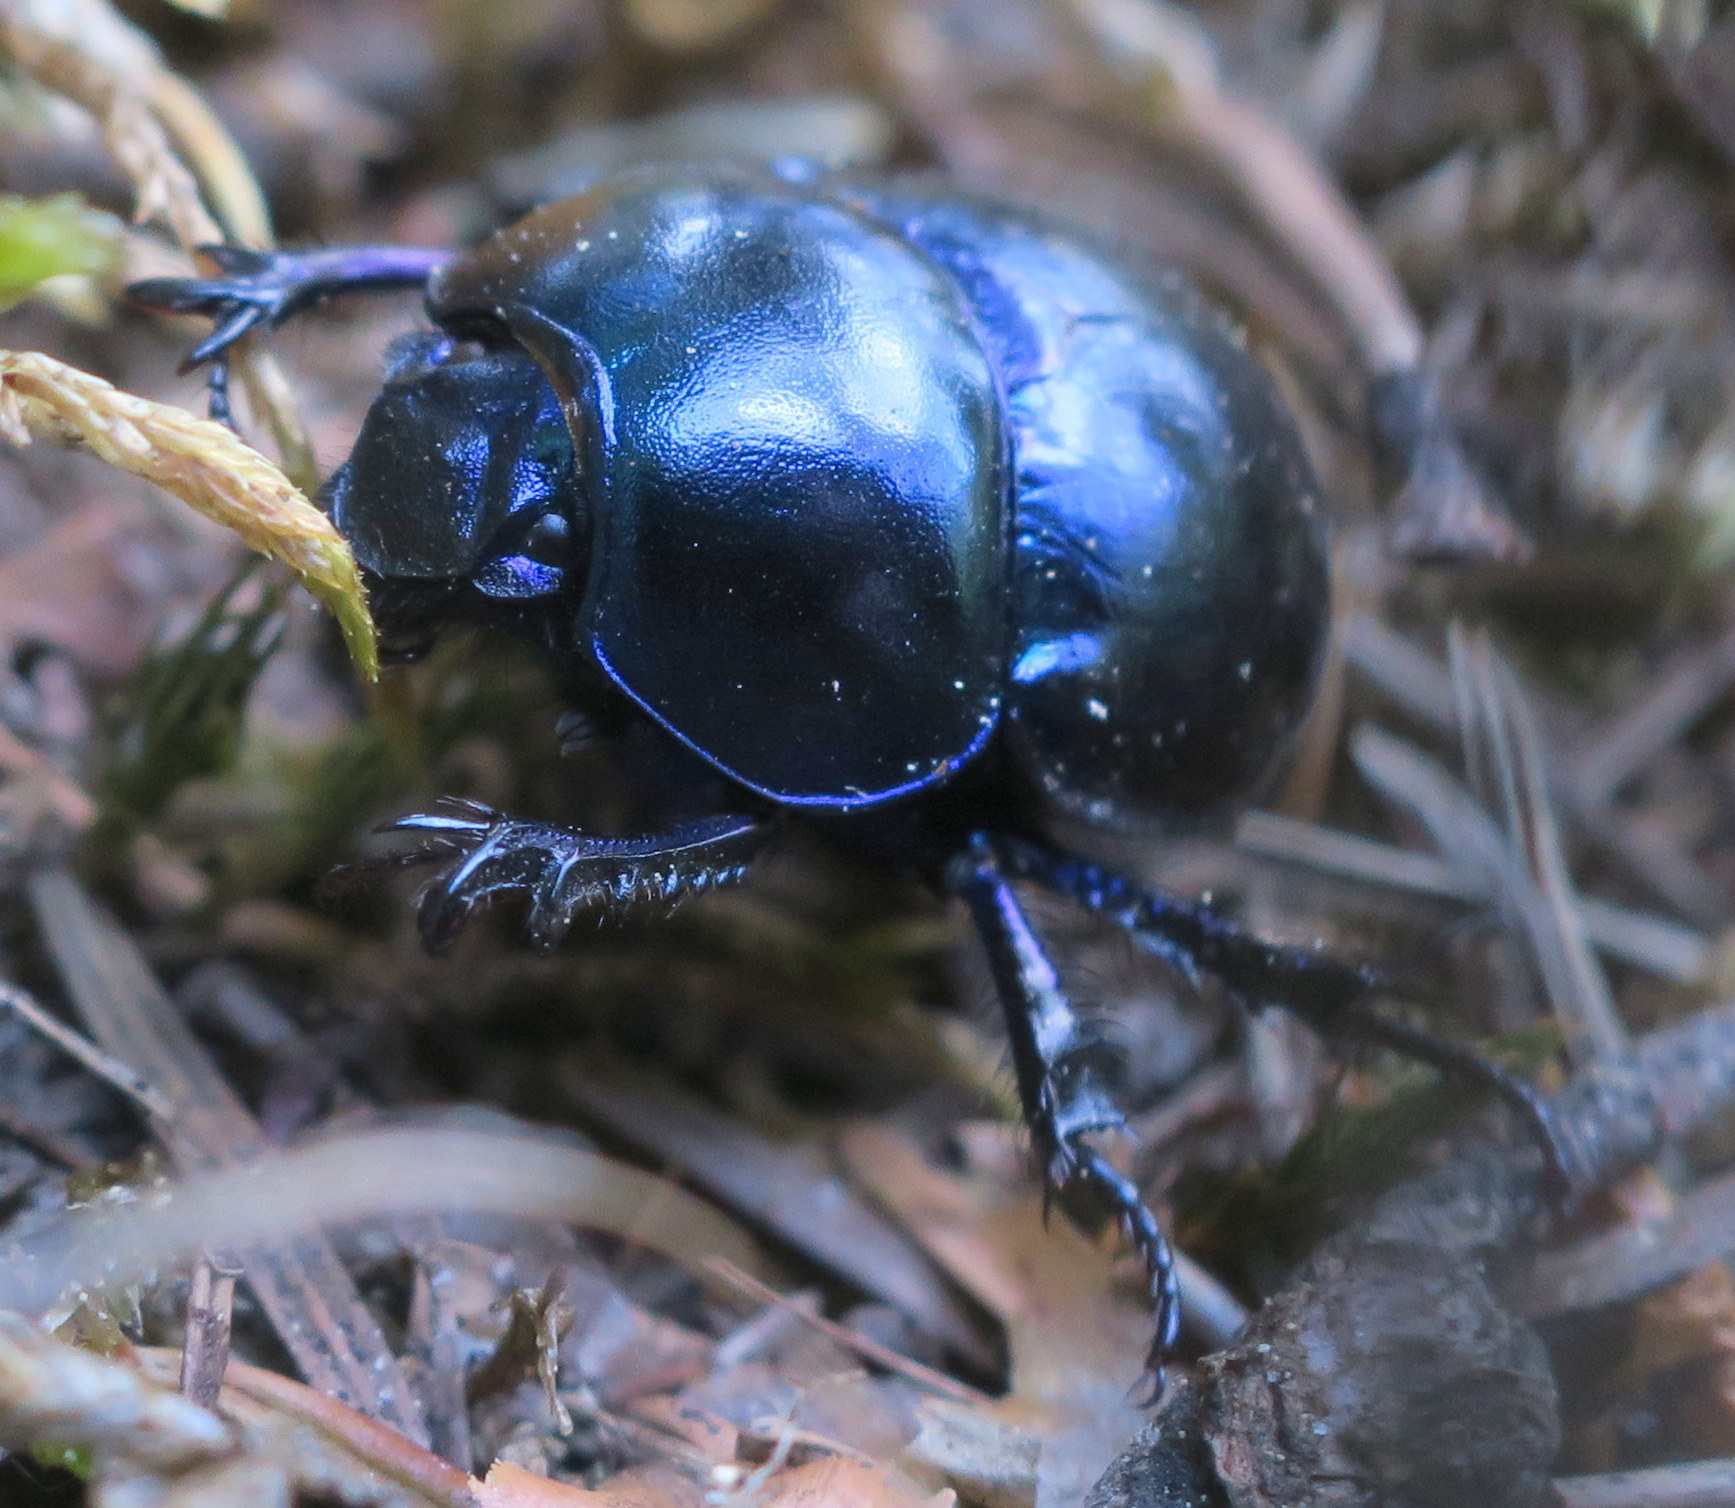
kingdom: Animalia
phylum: Arthropoda
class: Insecta
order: Coleoptera
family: Geotrupidae
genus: Trypocopris
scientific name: Trypocopris vernalis
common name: Spring dumbledor
